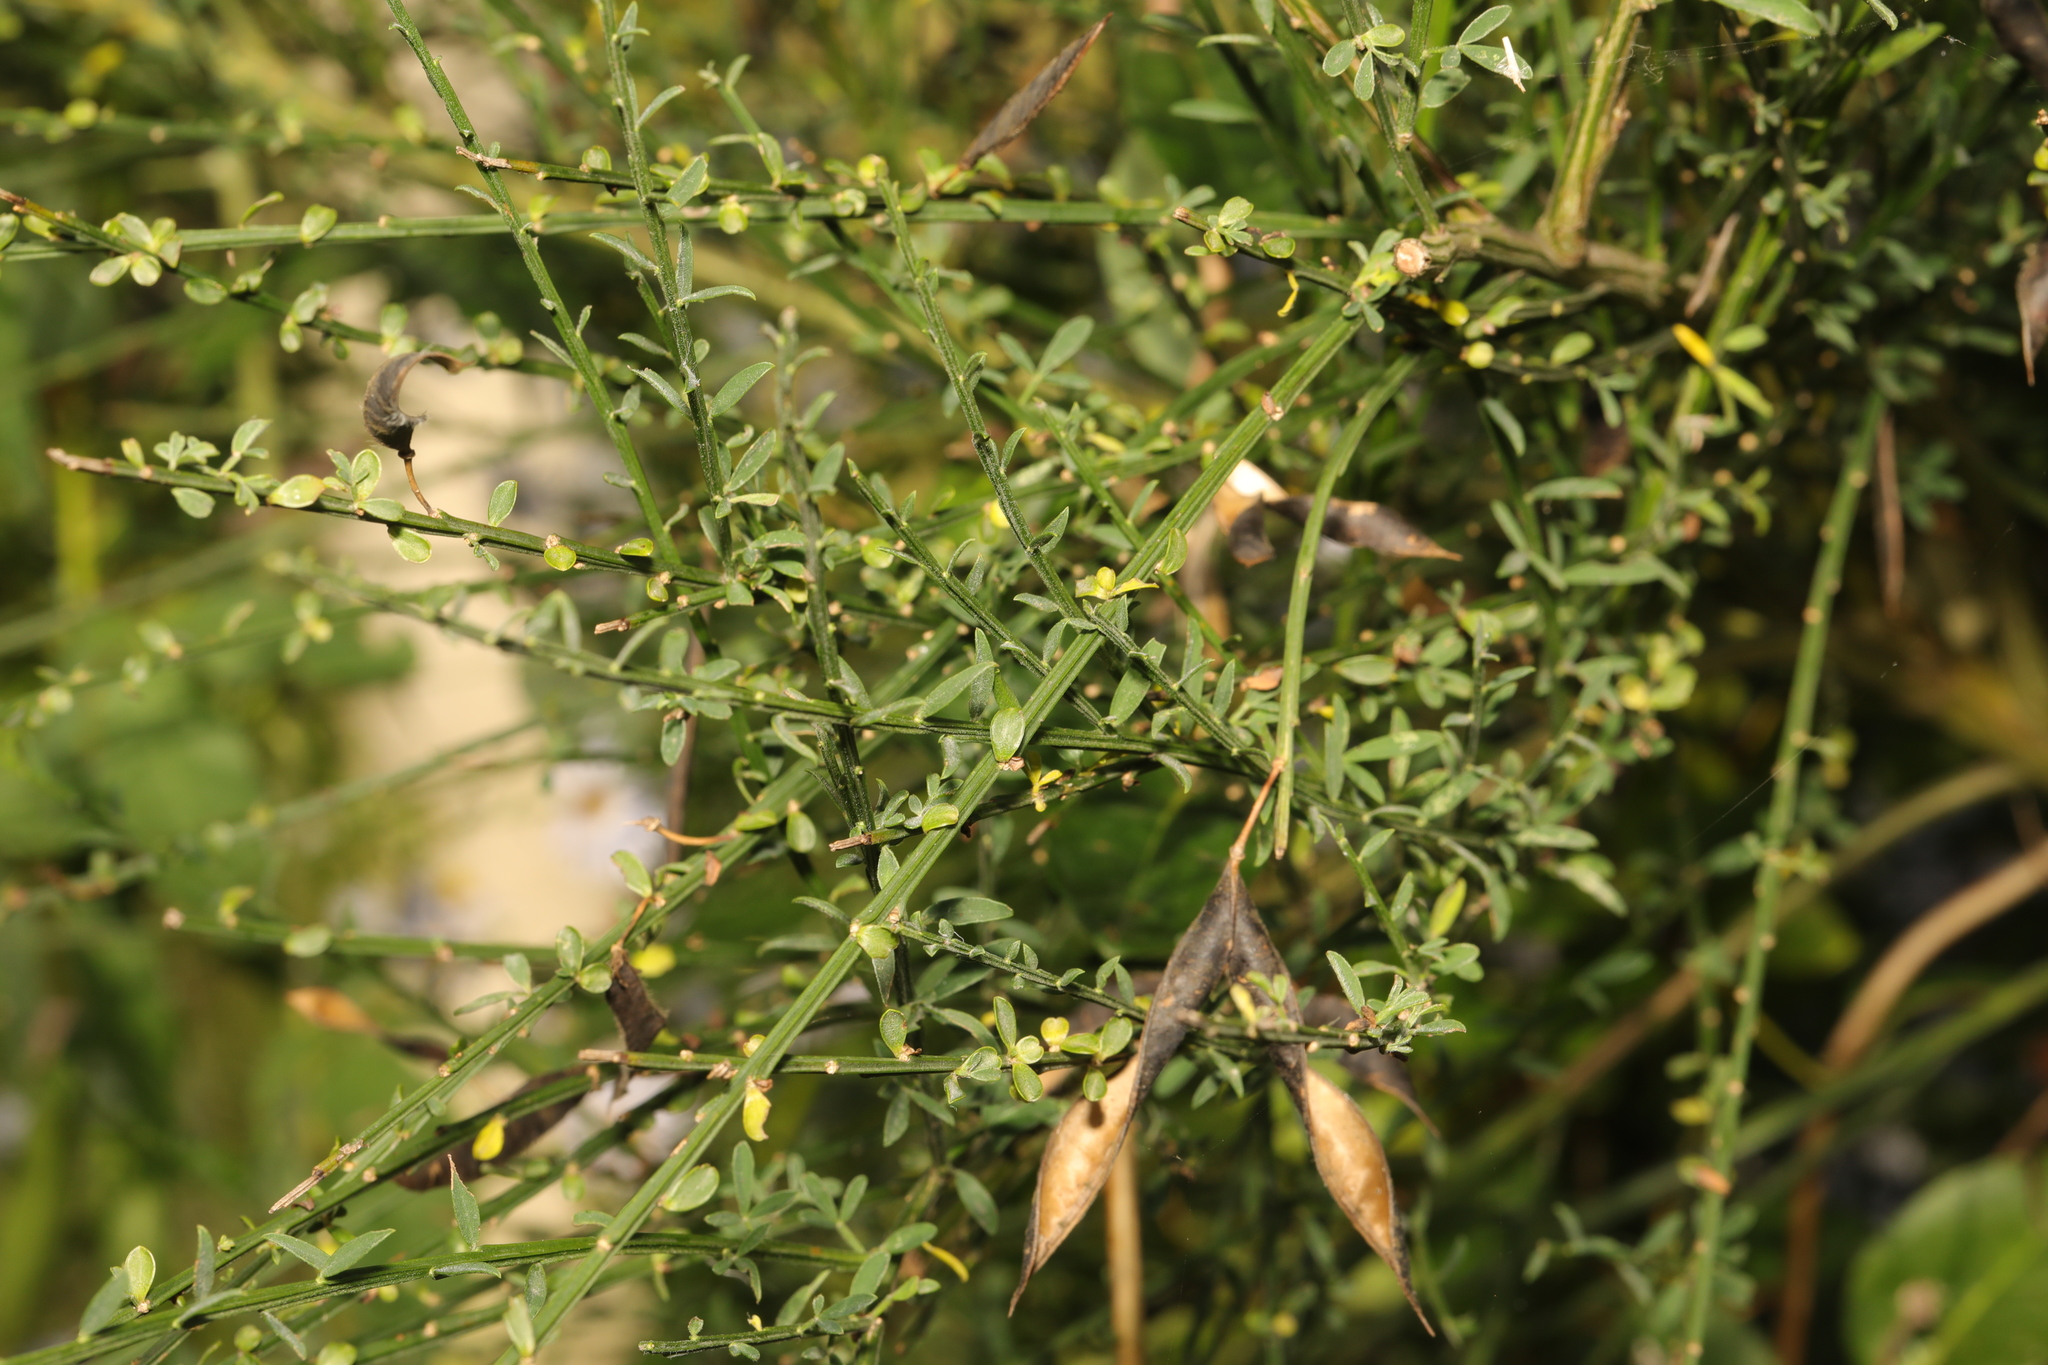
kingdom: Plantae
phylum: Tracheophyta
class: Magnoliopsida
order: Fabales
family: Fabaceae
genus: Cytisus
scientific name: Cytisus scoparius
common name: Scotch broom
